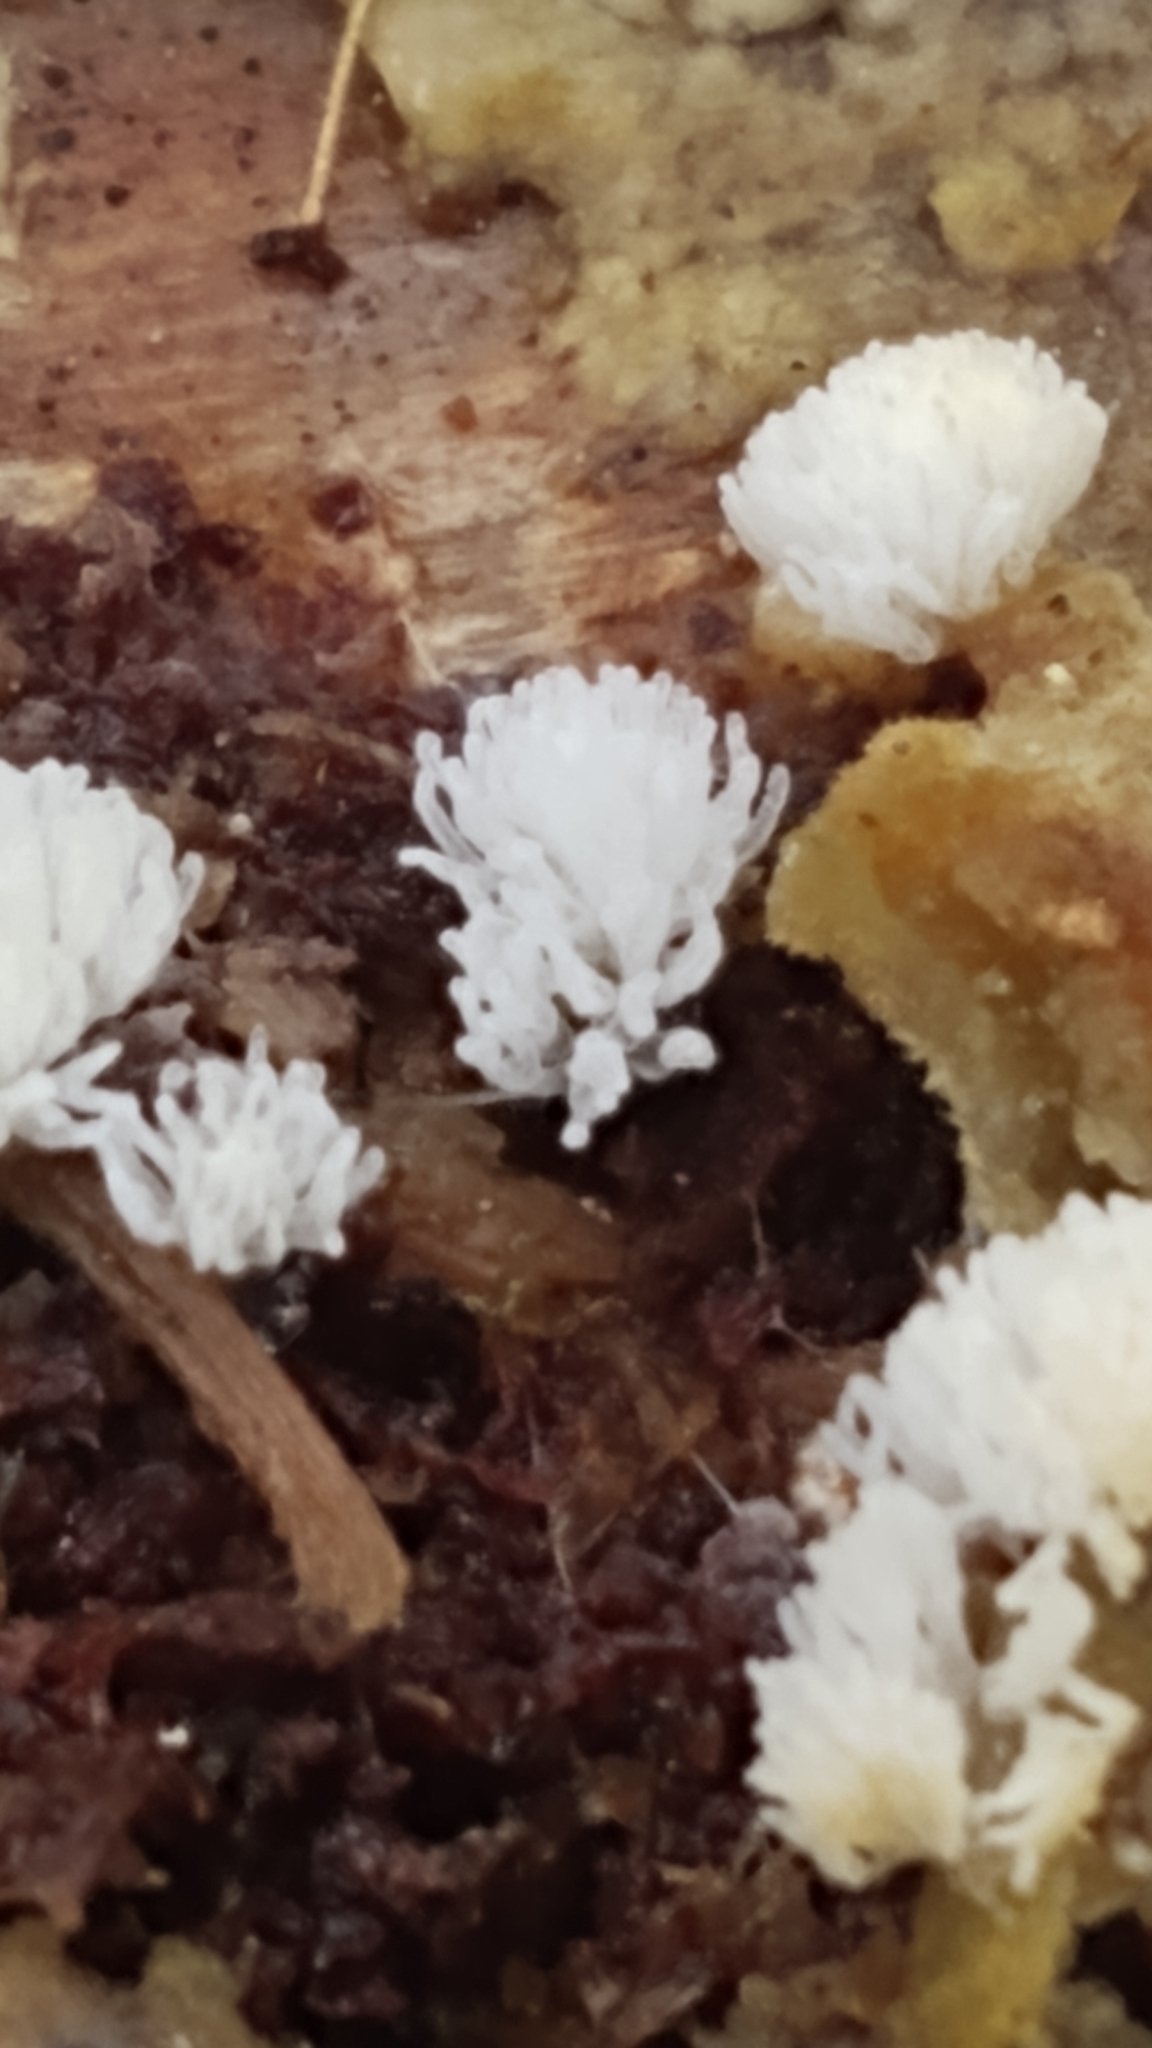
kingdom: Protozoa
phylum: Mycetozoa
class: Protosteliomycetes
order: Ceratiomyxales
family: Ceratiomyxaceae
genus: Ceratiomyxa
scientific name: Ceratiomyxa fruticulosa
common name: Honeycomb coral slime mold
